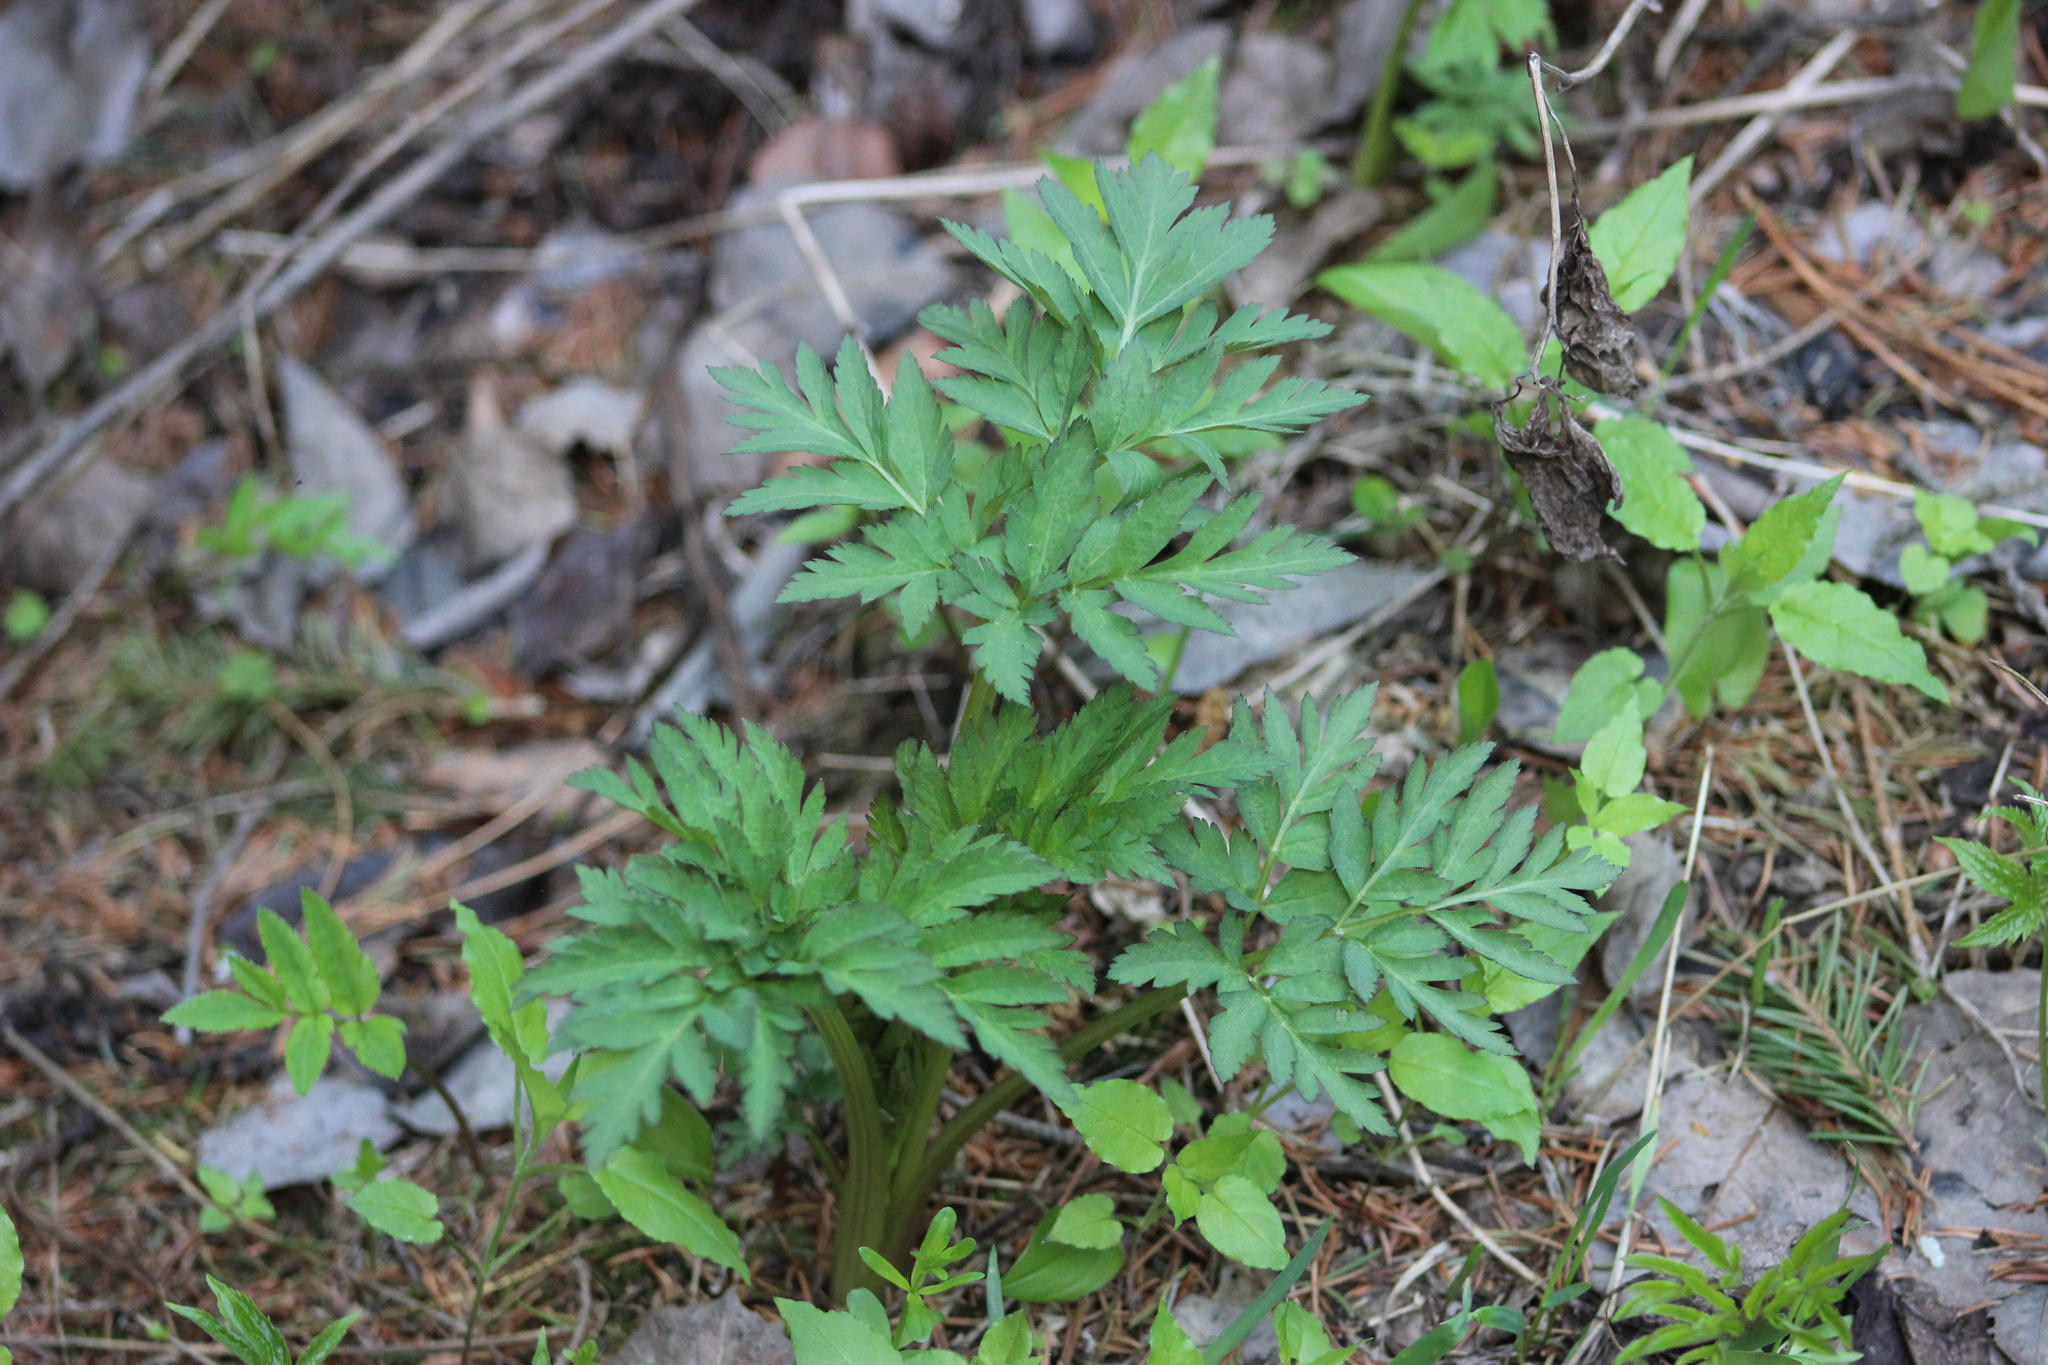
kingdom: Plantae
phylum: Tracheophyta
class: Magnoliopsida
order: Apiales
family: Apiaceae
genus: Pleurospermum
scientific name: Pleurospermum uralense
